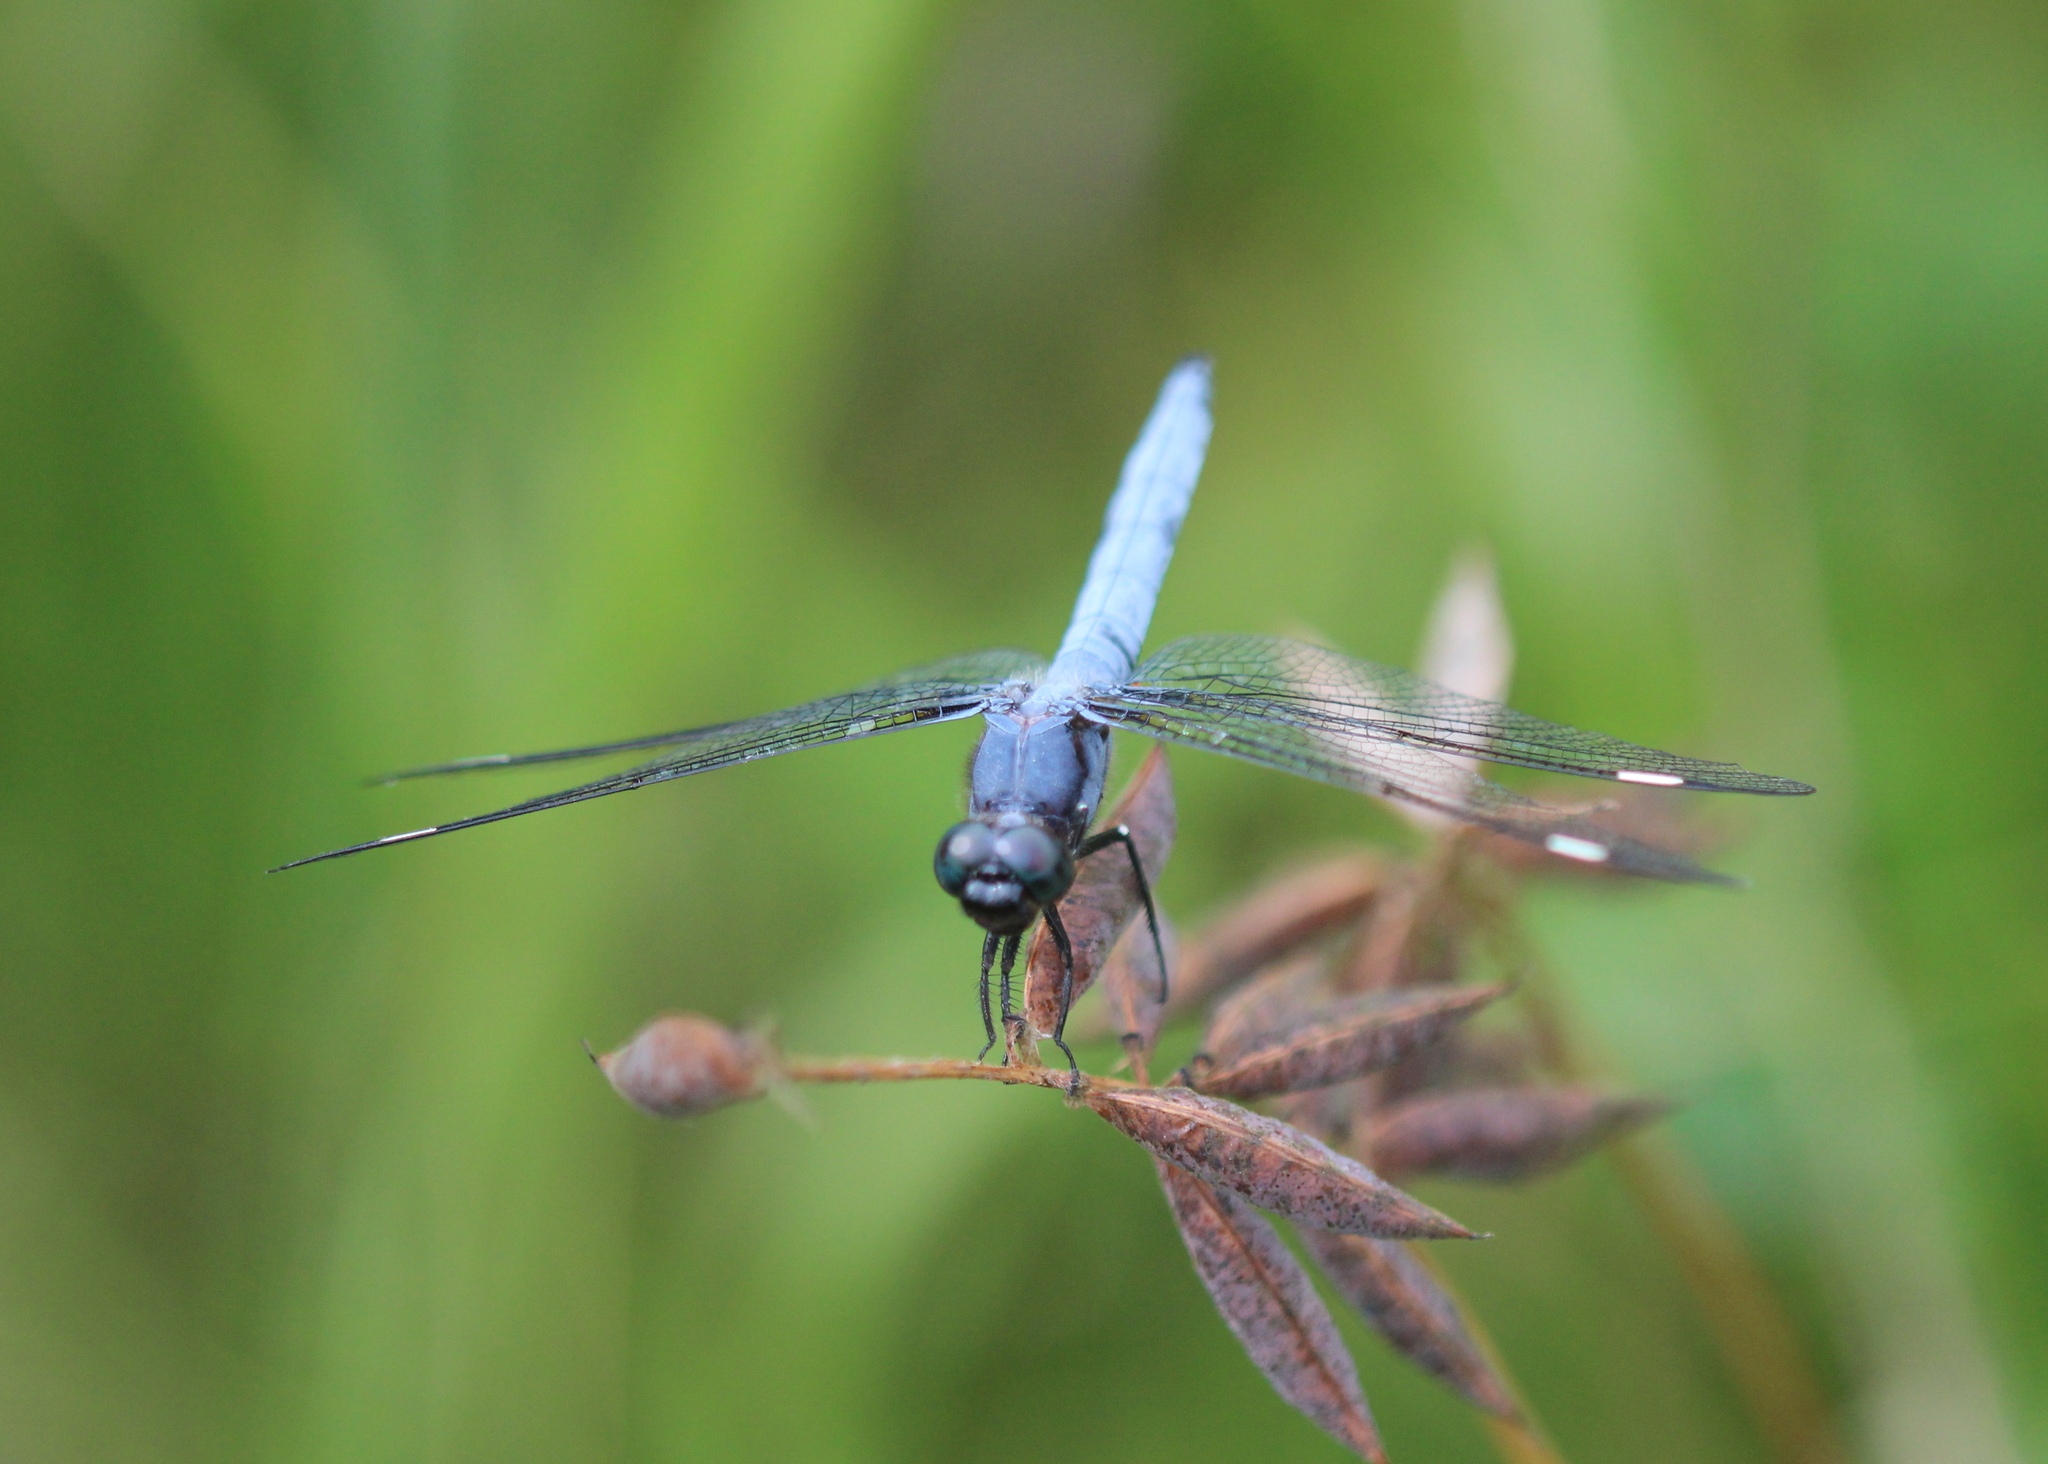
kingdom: Animalia
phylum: Arthropoda
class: Insecta
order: Odonata
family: Libellulidae
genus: Libellula
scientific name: Libellula cyanea
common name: Spangled skimmer
